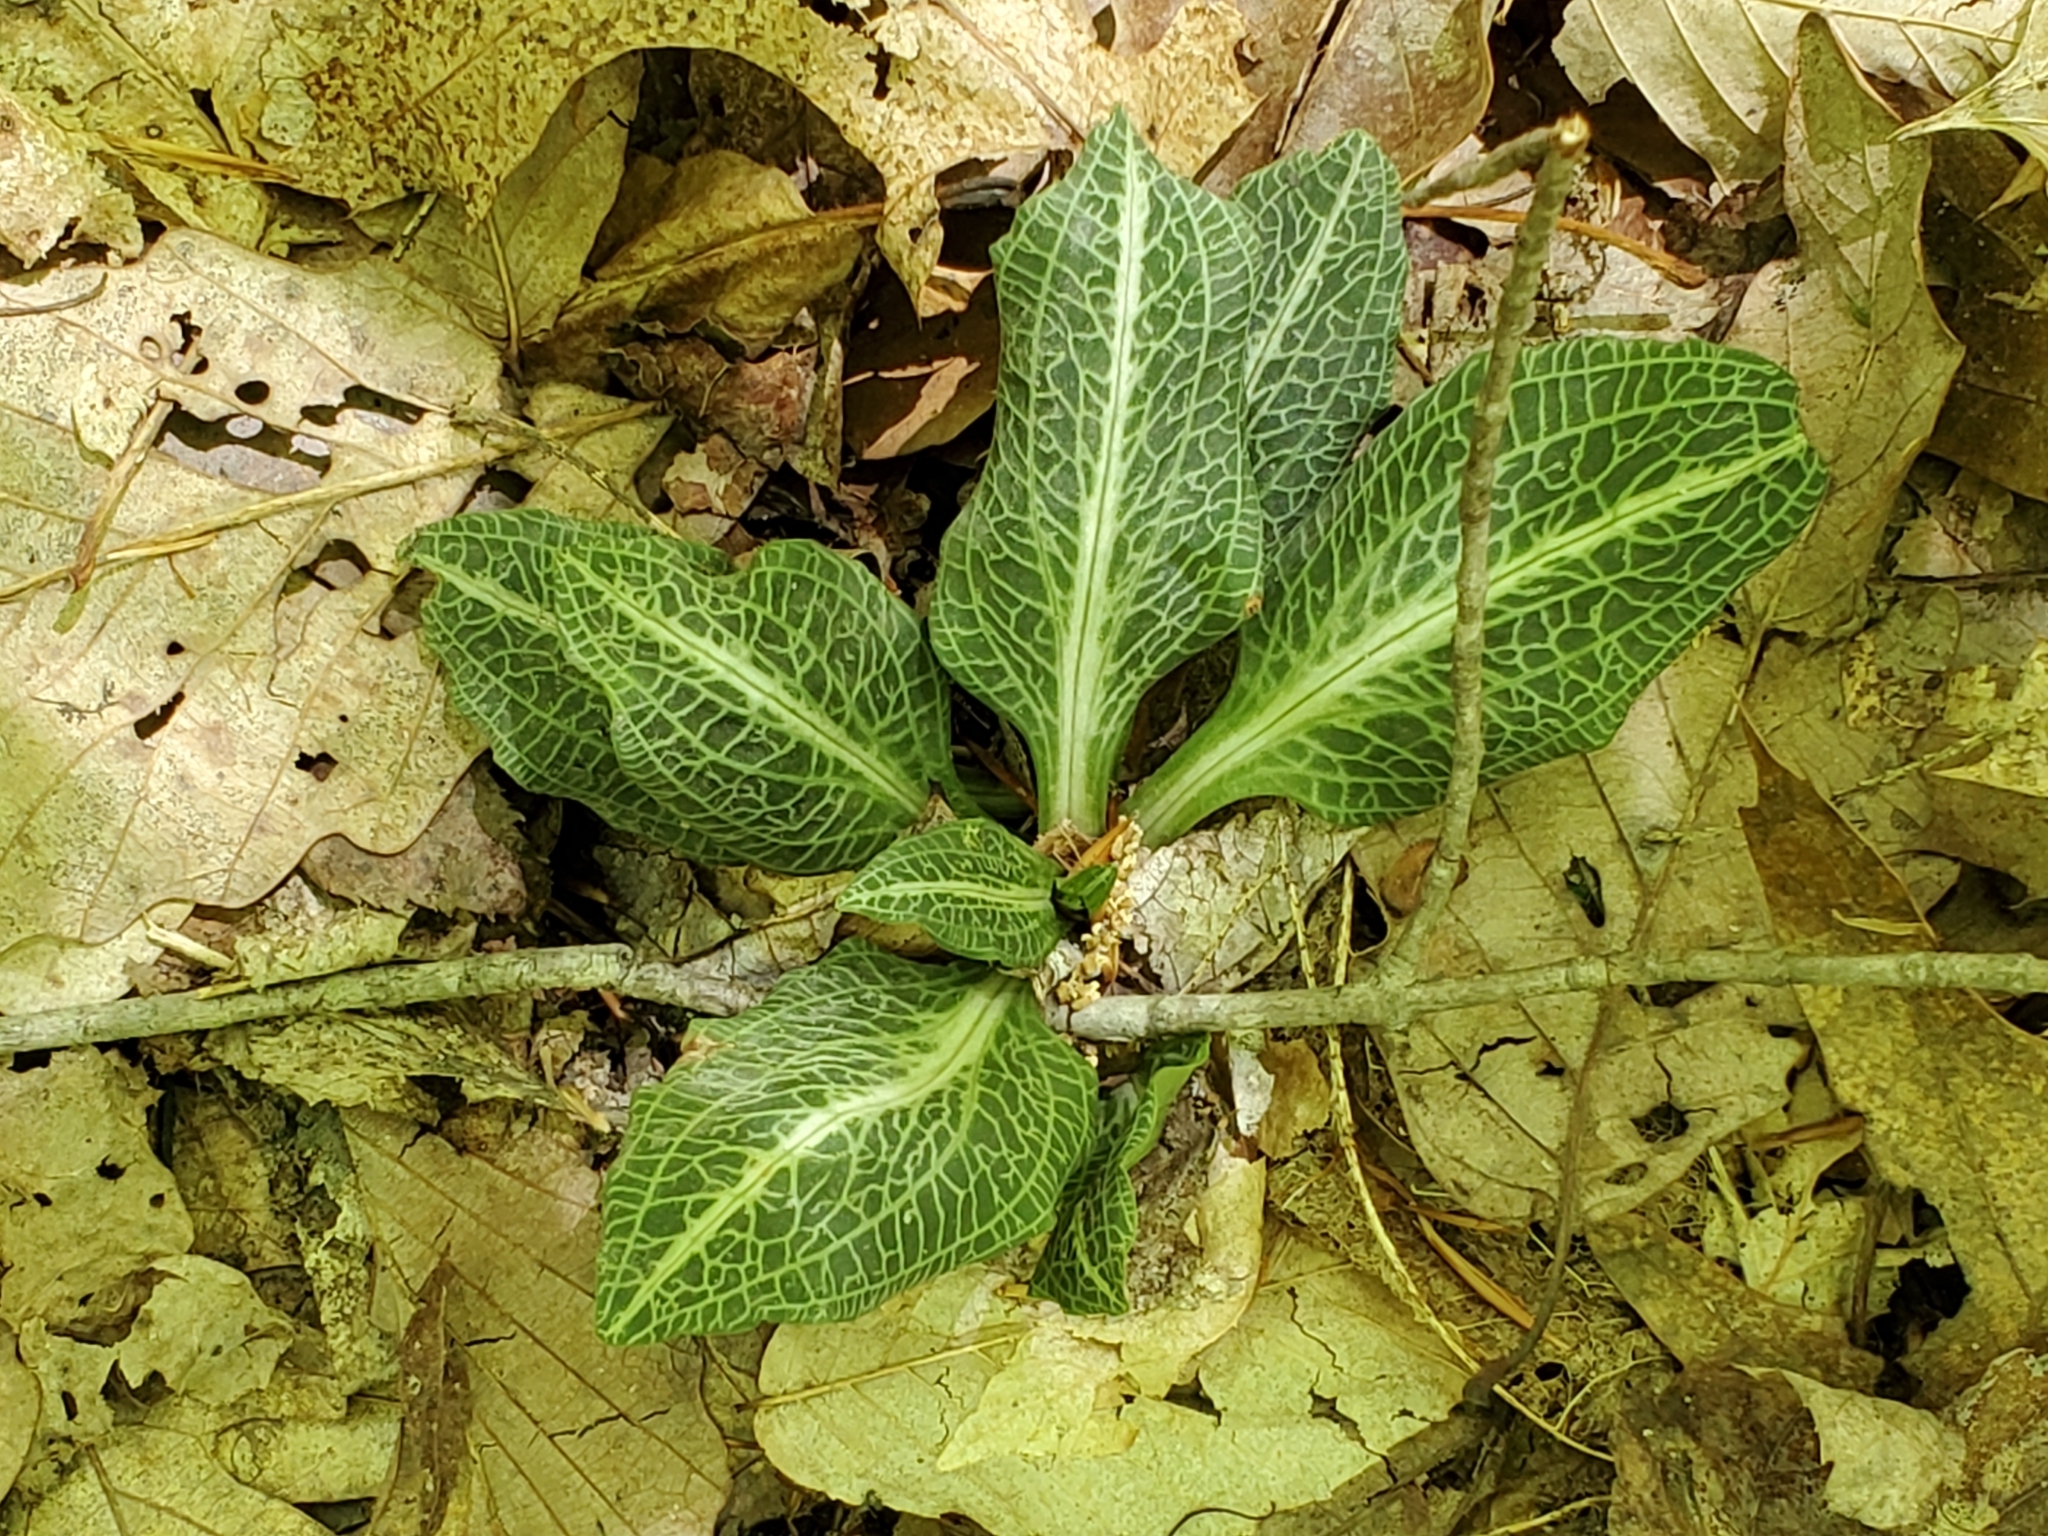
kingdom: Plantae
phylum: Tracheophyta
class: Liliopsida
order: Asparagales
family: Orchidaceae
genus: Goodyera
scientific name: Goodyera pubescens
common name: Downy rattlesnake-plantain
